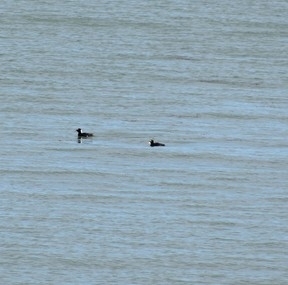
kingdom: Animalia
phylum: Chordata
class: Aves
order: Anseriformes
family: Anatidae
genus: Melanitta
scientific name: Melanitta perspicillata
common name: Surf scoter
